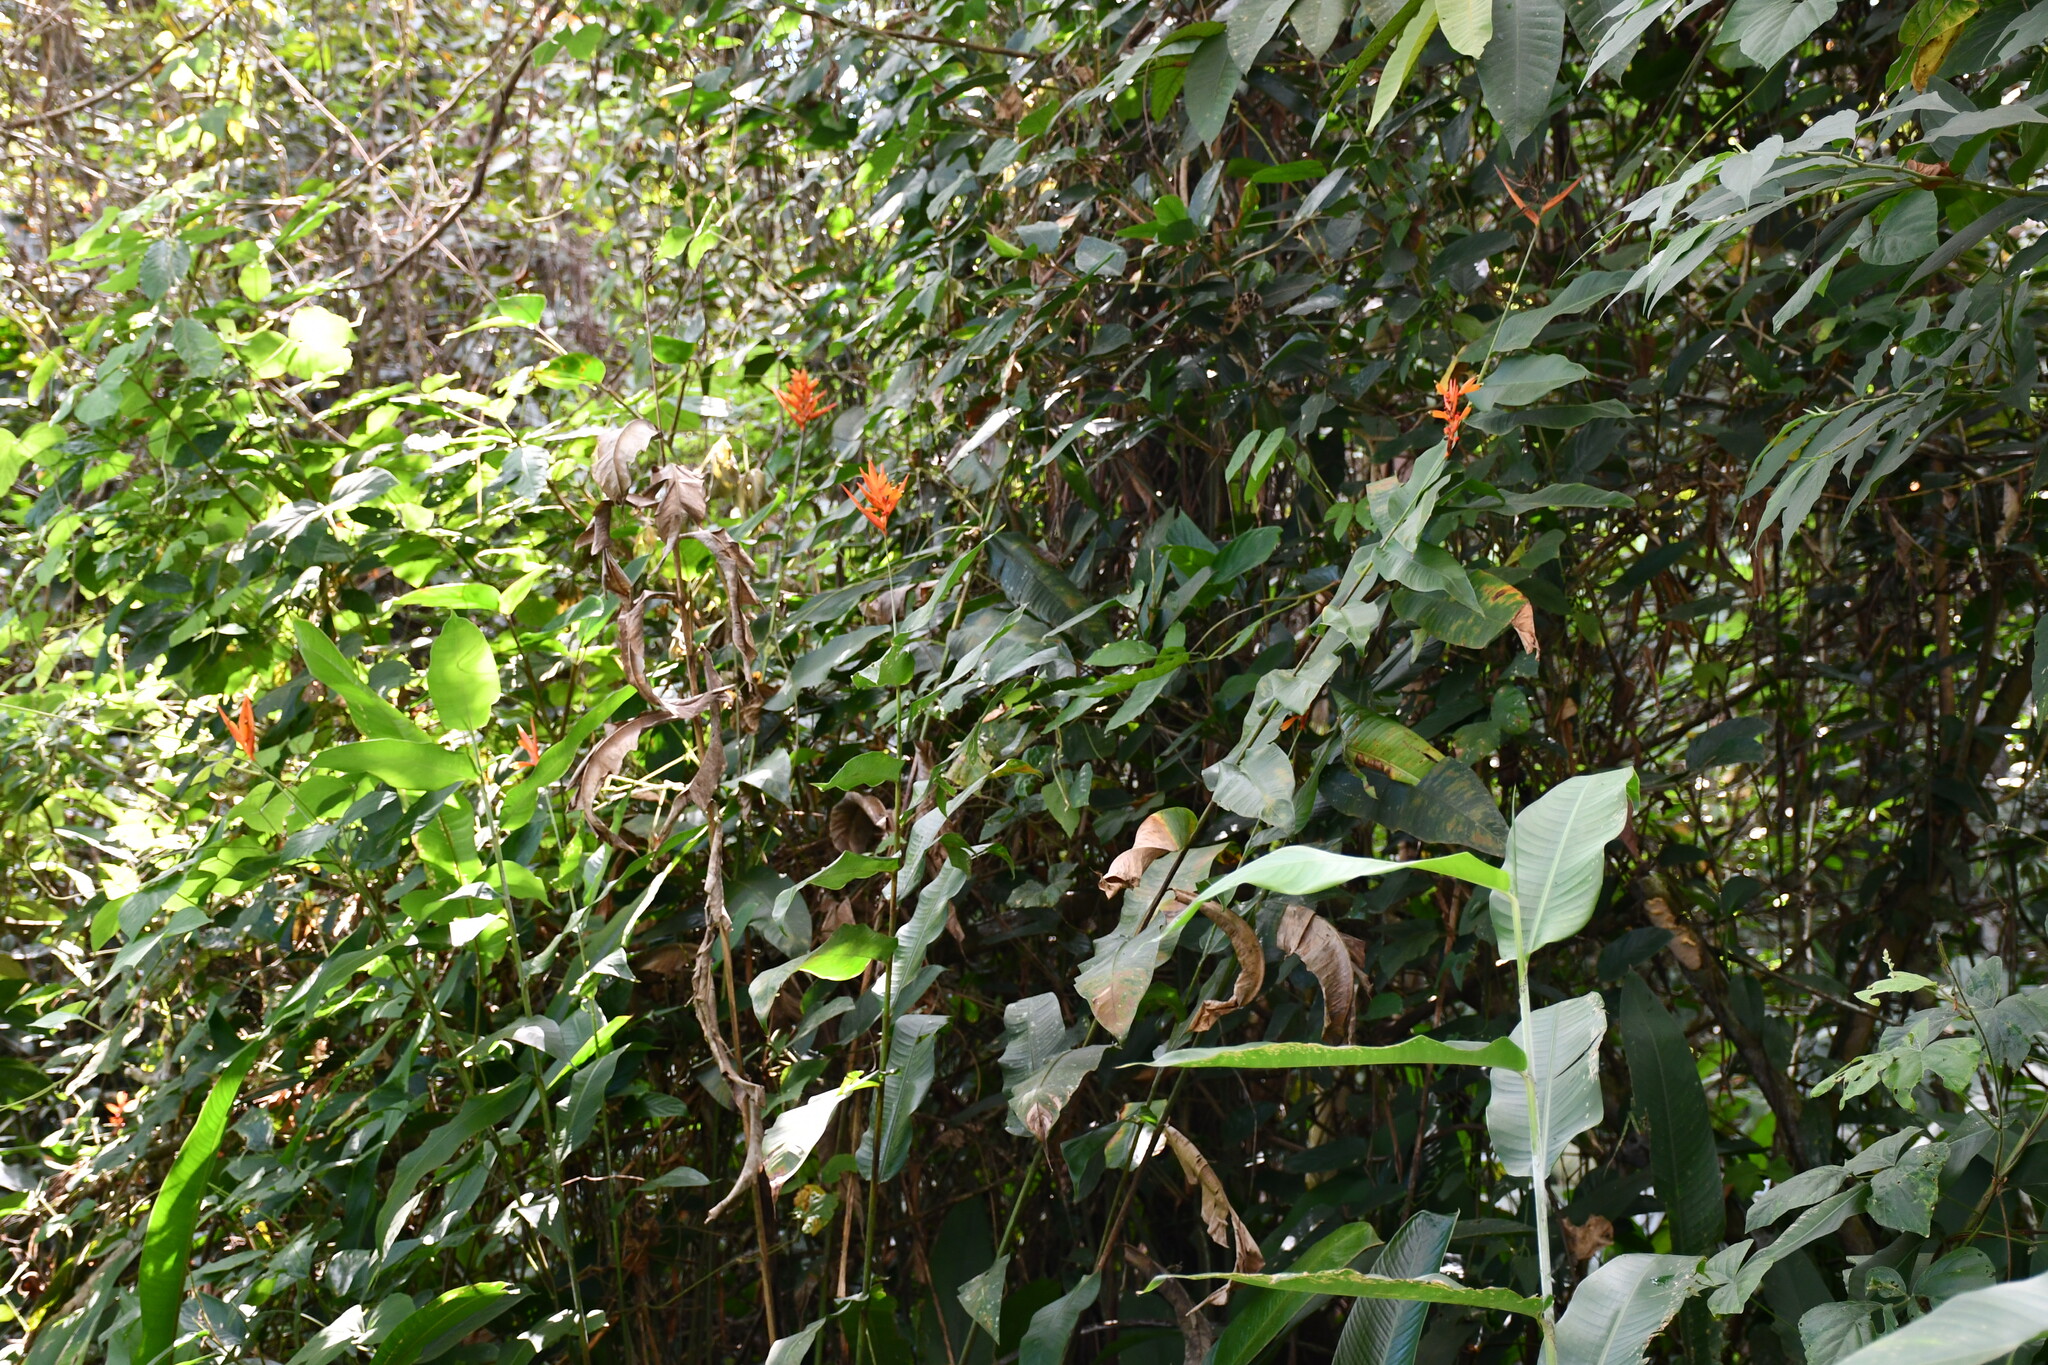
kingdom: Plantae
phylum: Tracheophyta
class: Liliopsida
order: Zingiberales
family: Heliconiaceae
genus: Heliconia
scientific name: Heliconia psittacorum
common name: Parrot's-flower
